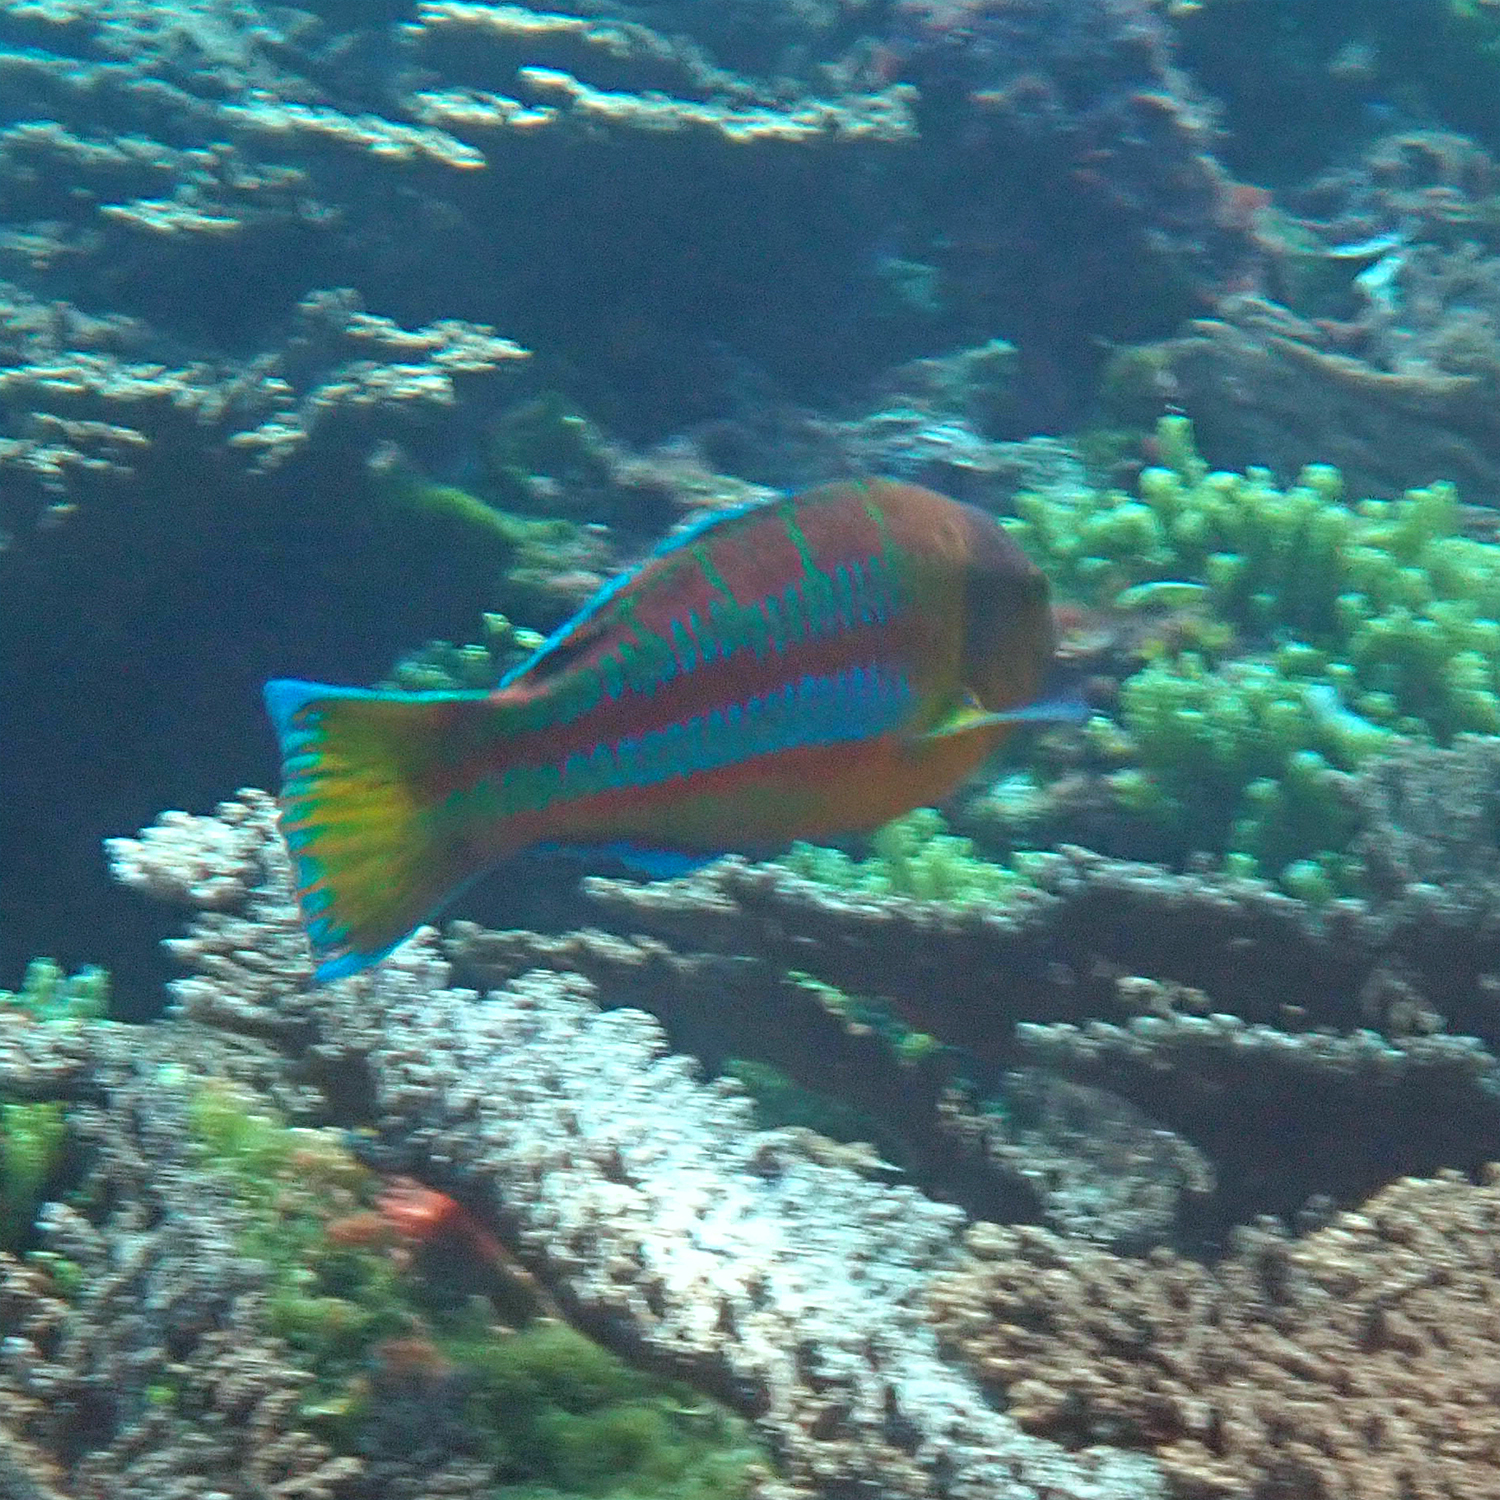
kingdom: Animalia
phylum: Chordata
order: Perciformes
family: Labridae
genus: Thalassoma
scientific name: Thalassoma trilobatum
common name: Christmas wrasse
